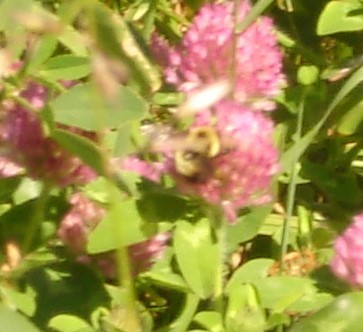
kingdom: Animalia
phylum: Arthropoda
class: Insecta
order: Hymenoptera
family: Apidae
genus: Bombus
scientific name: Bombus griseocollis
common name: Brown-belted bumble bee
